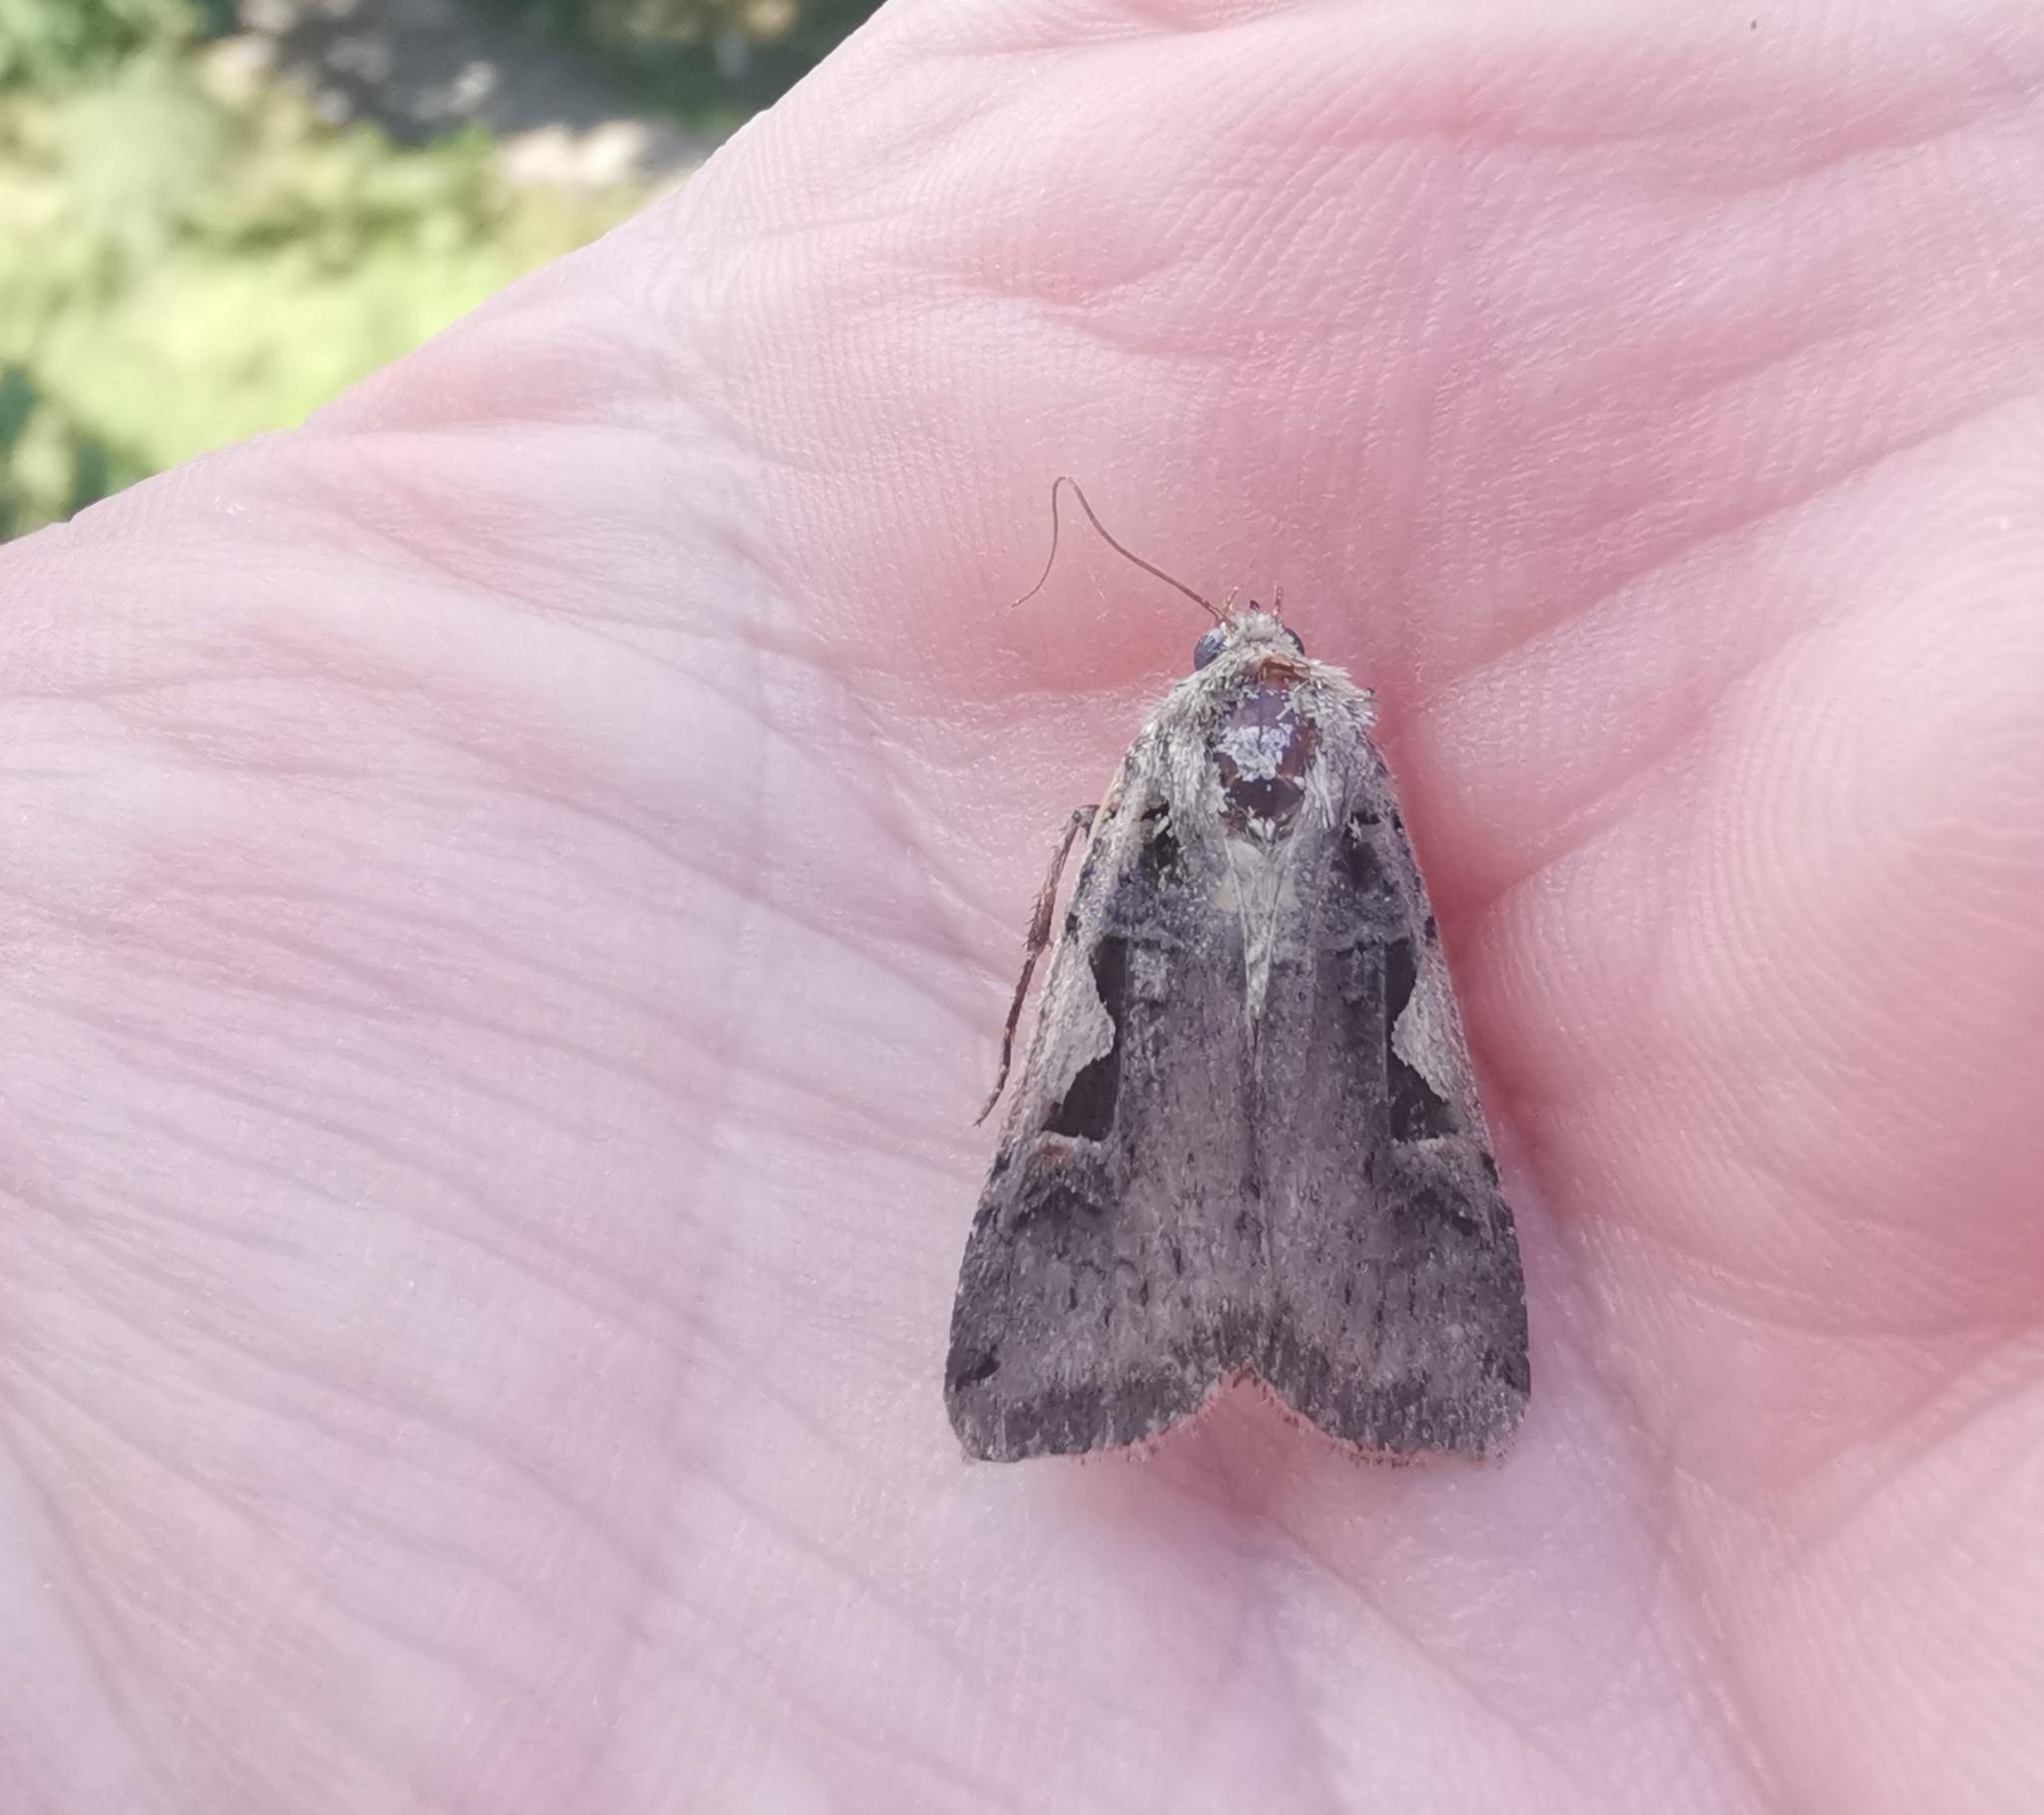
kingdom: Animalia
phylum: Arthropoda
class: Insecta
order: Lepidoptera
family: Noctuidae
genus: Xestia
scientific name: Xestia c-nigrum
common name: Setaceous hebrew character
